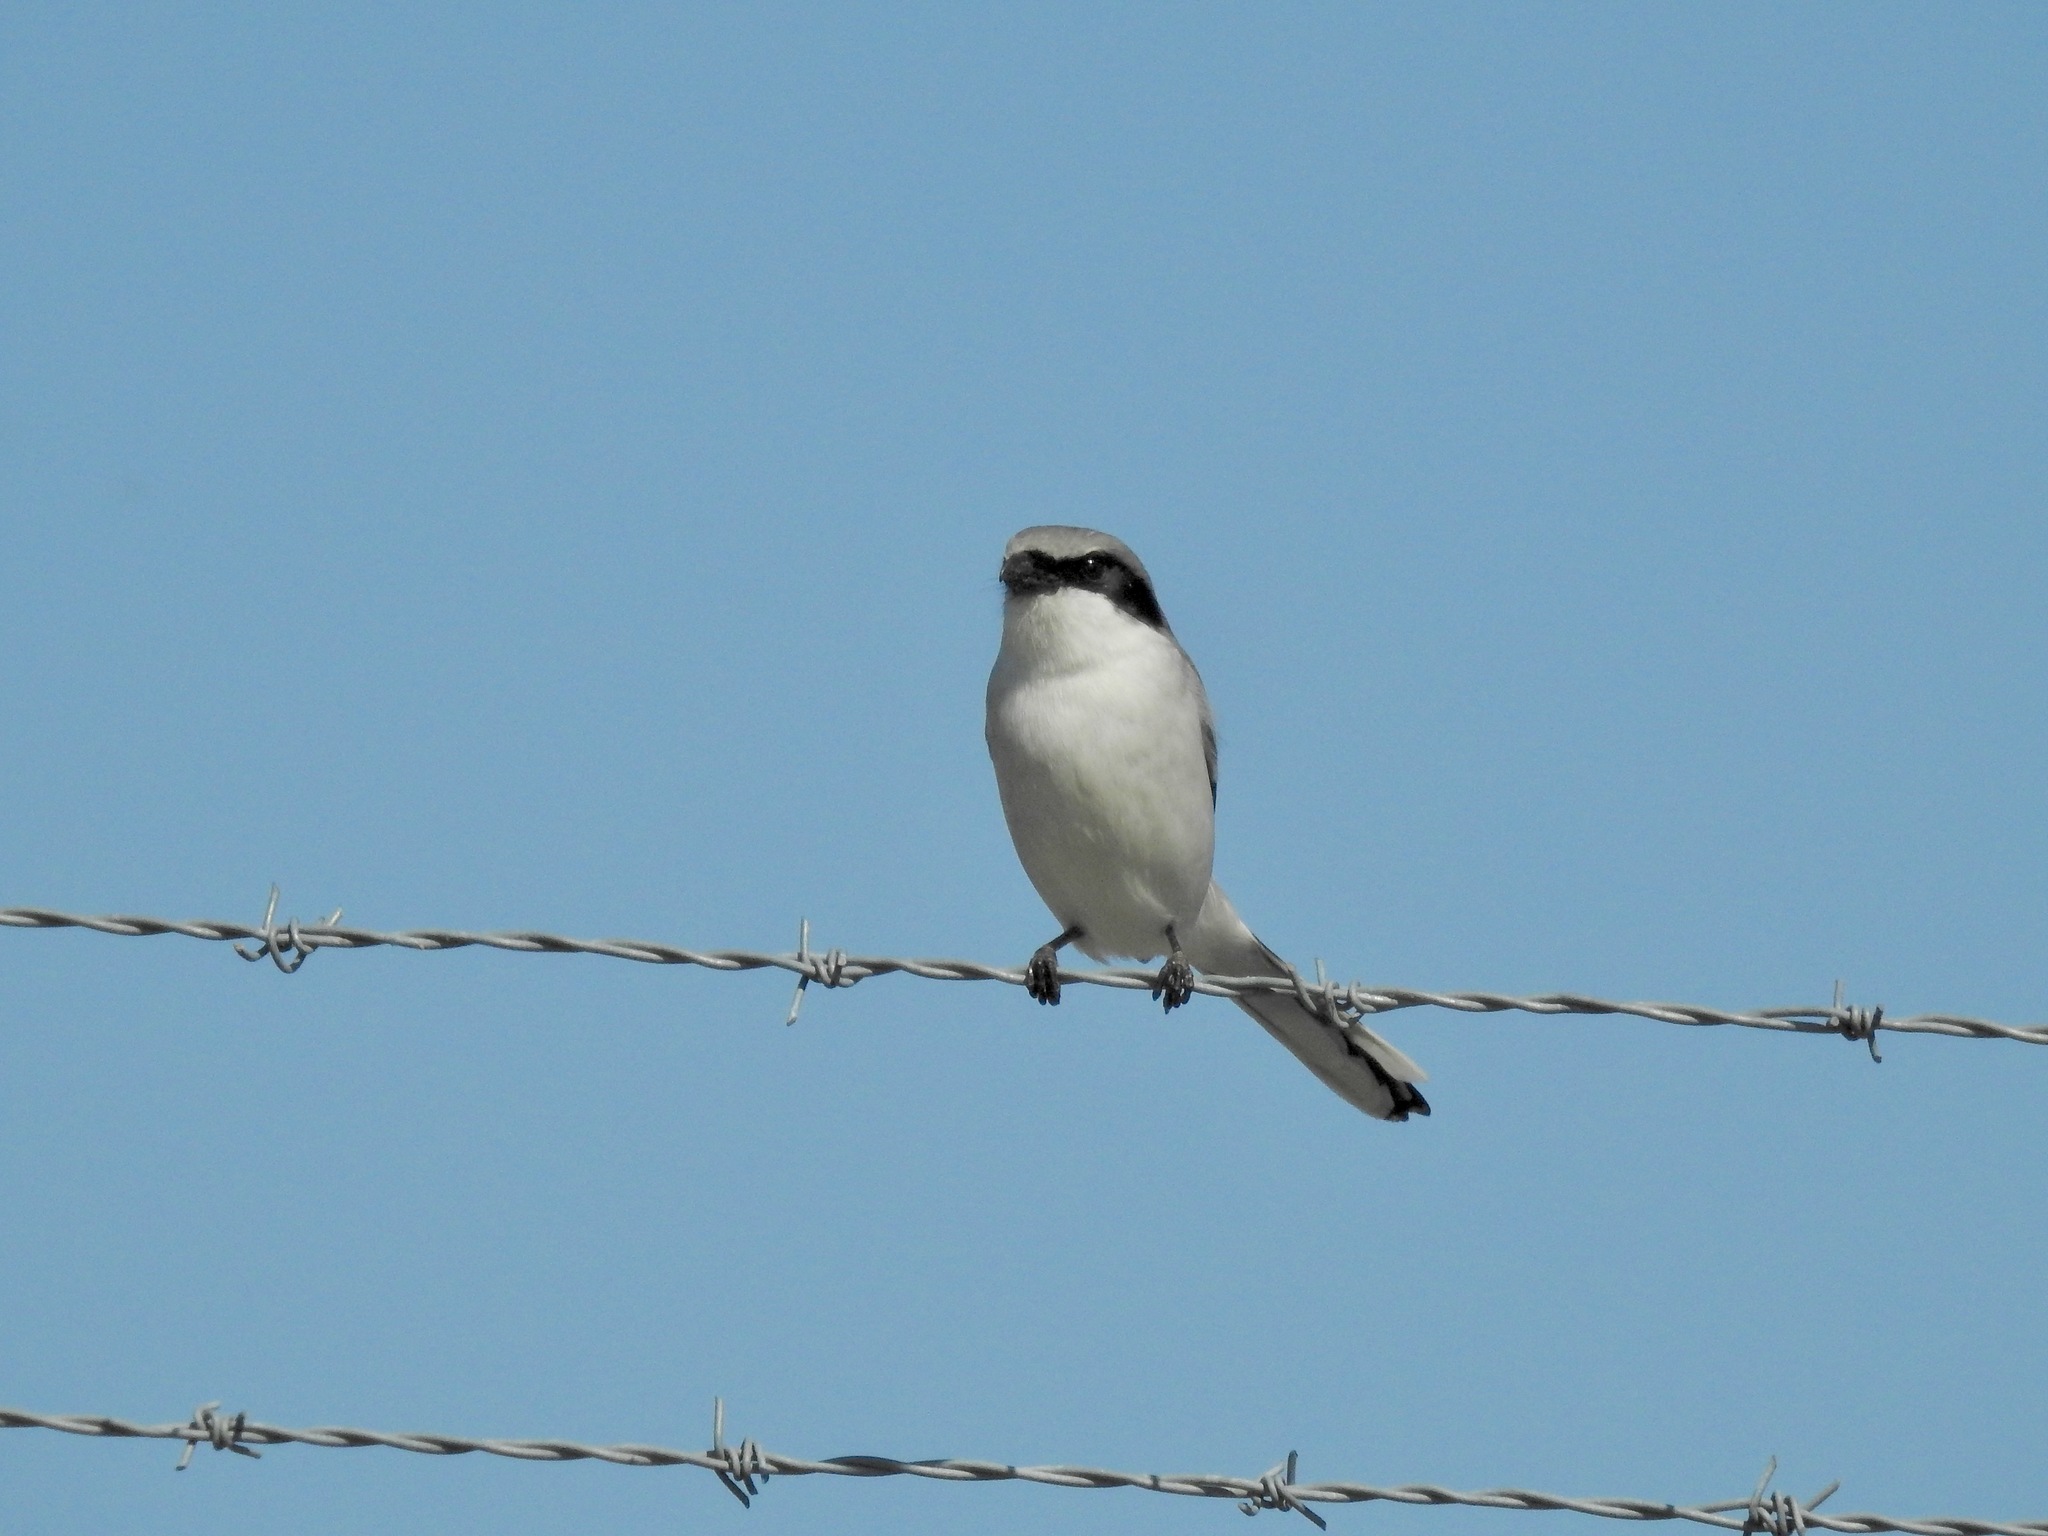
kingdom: Animalia
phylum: Chordata
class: Aves
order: Passeriformes
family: Laniidae
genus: Lanius
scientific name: Lanius ludovicianus
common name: Loggerhead shrike
